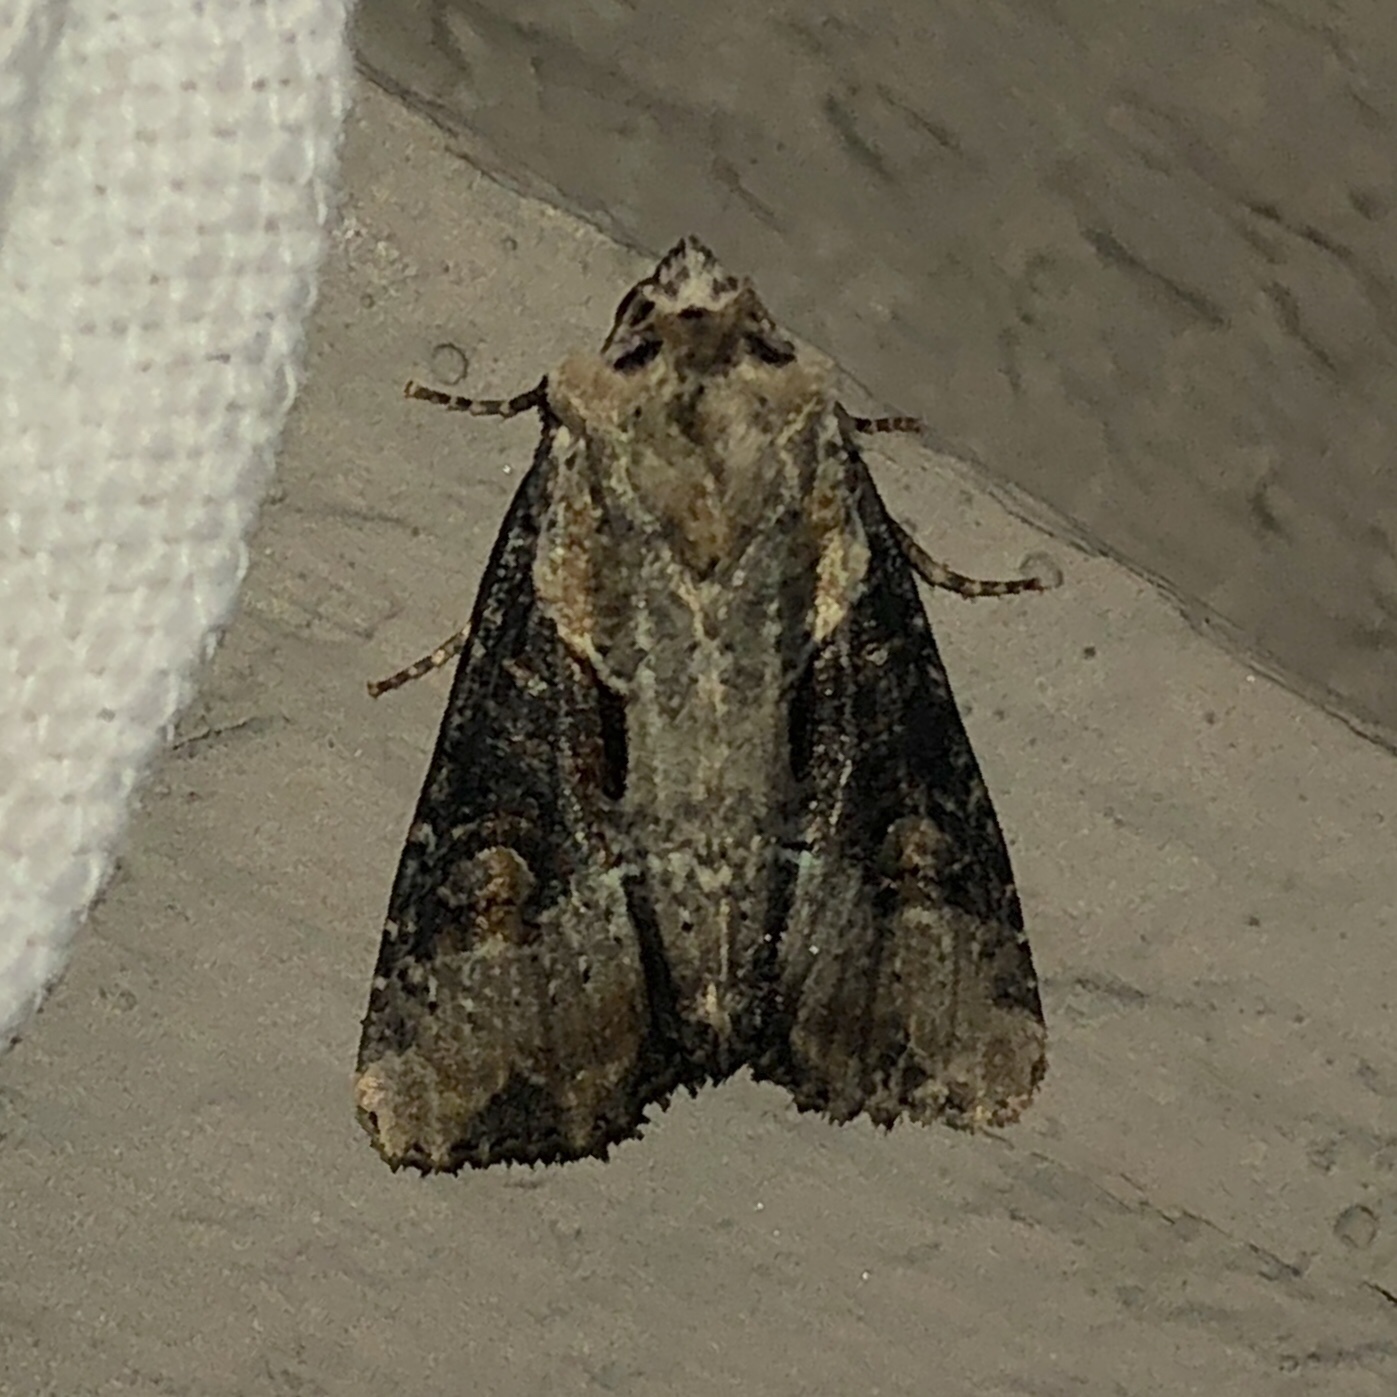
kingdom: Animalia
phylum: Arthropoda
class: Insecta
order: Lepidoptera
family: Noctuidae
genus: Lateroligia
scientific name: Lateroligia ophiogramma
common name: Double lobed
